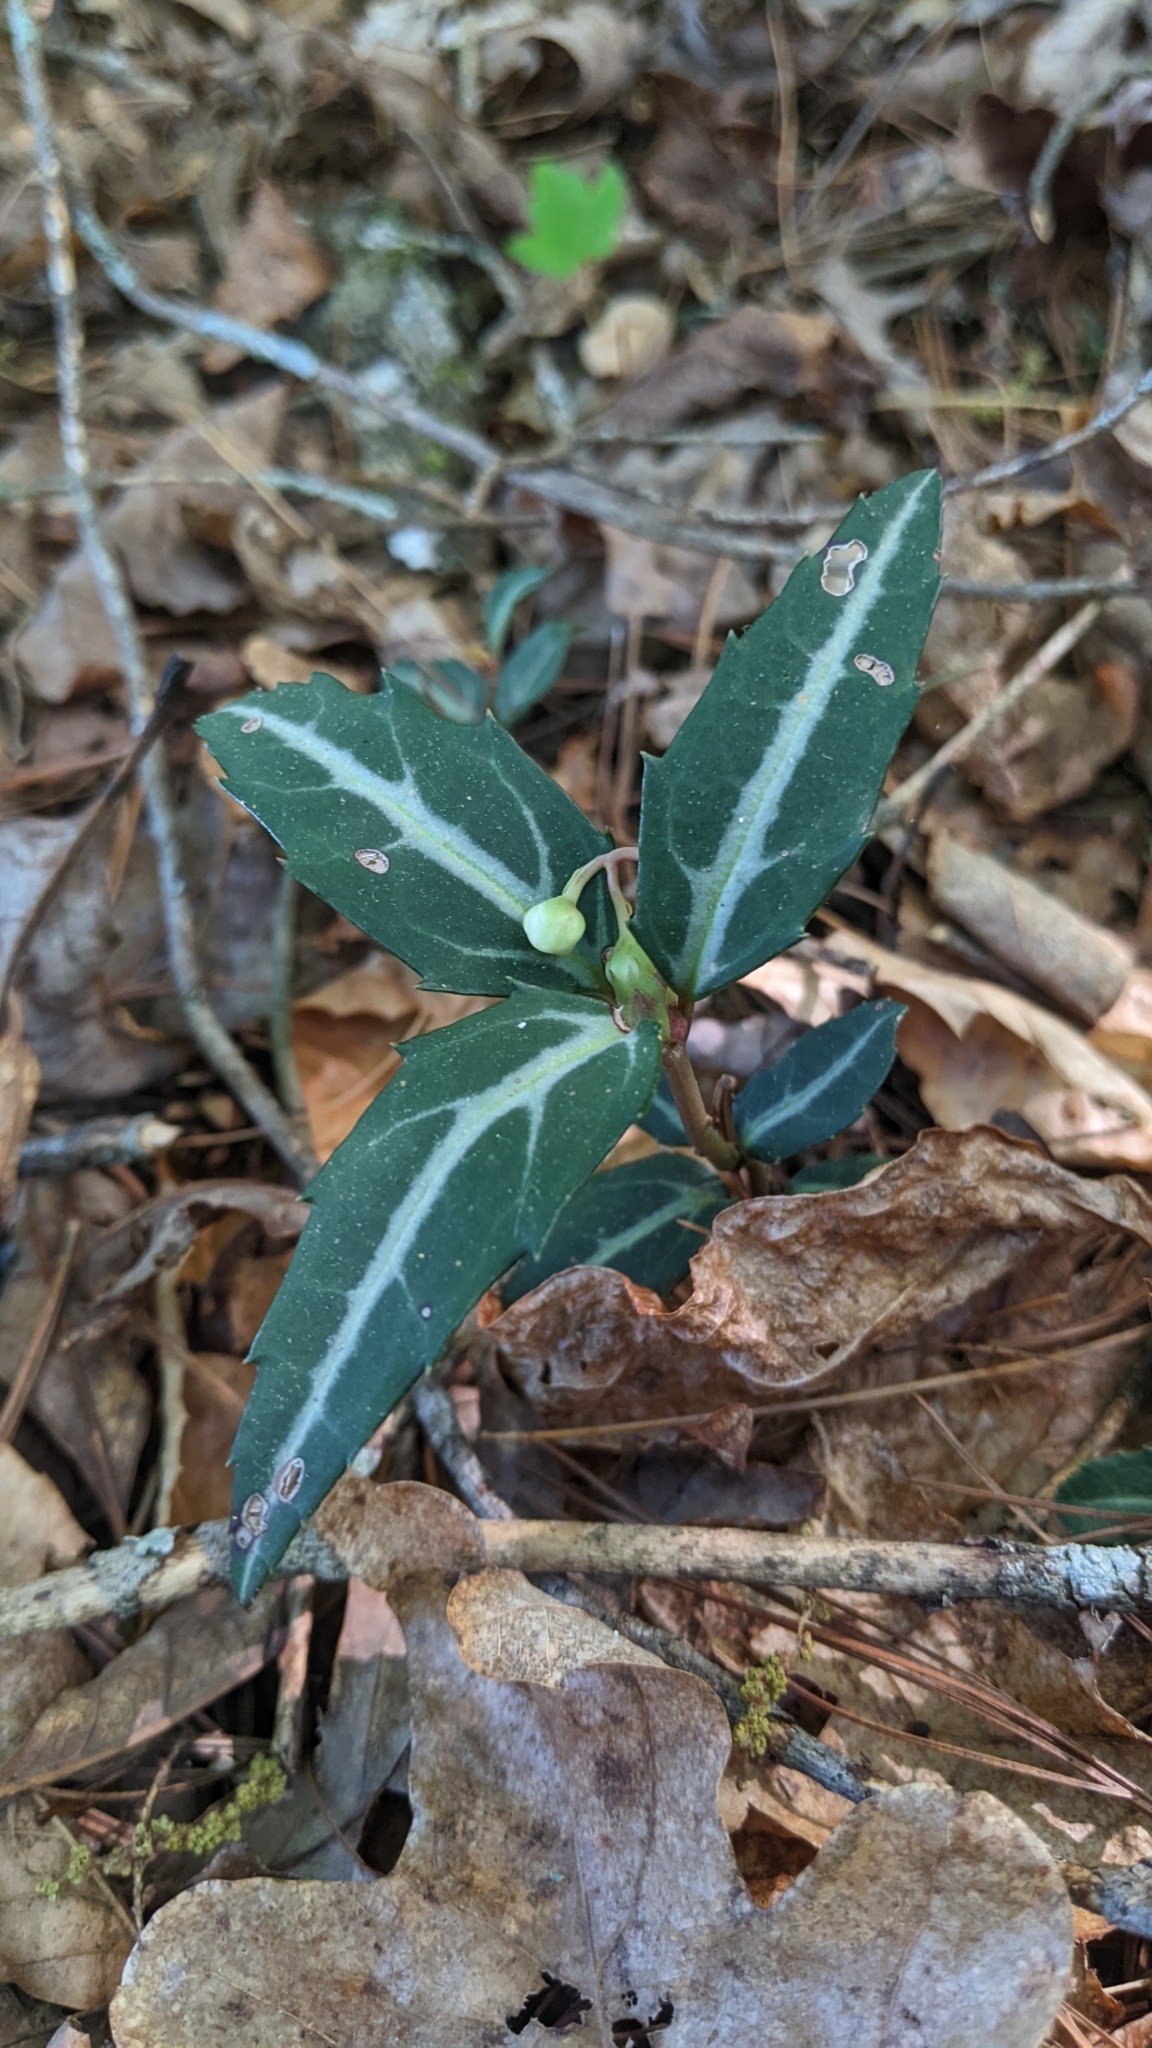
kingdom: Plantae
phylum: Tracheophyta
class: Magnoliopsida
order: Ericales
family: Ericaceae
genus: Chimaphila
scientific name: Chimaphila maculata
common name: Spotted pipsissewa
